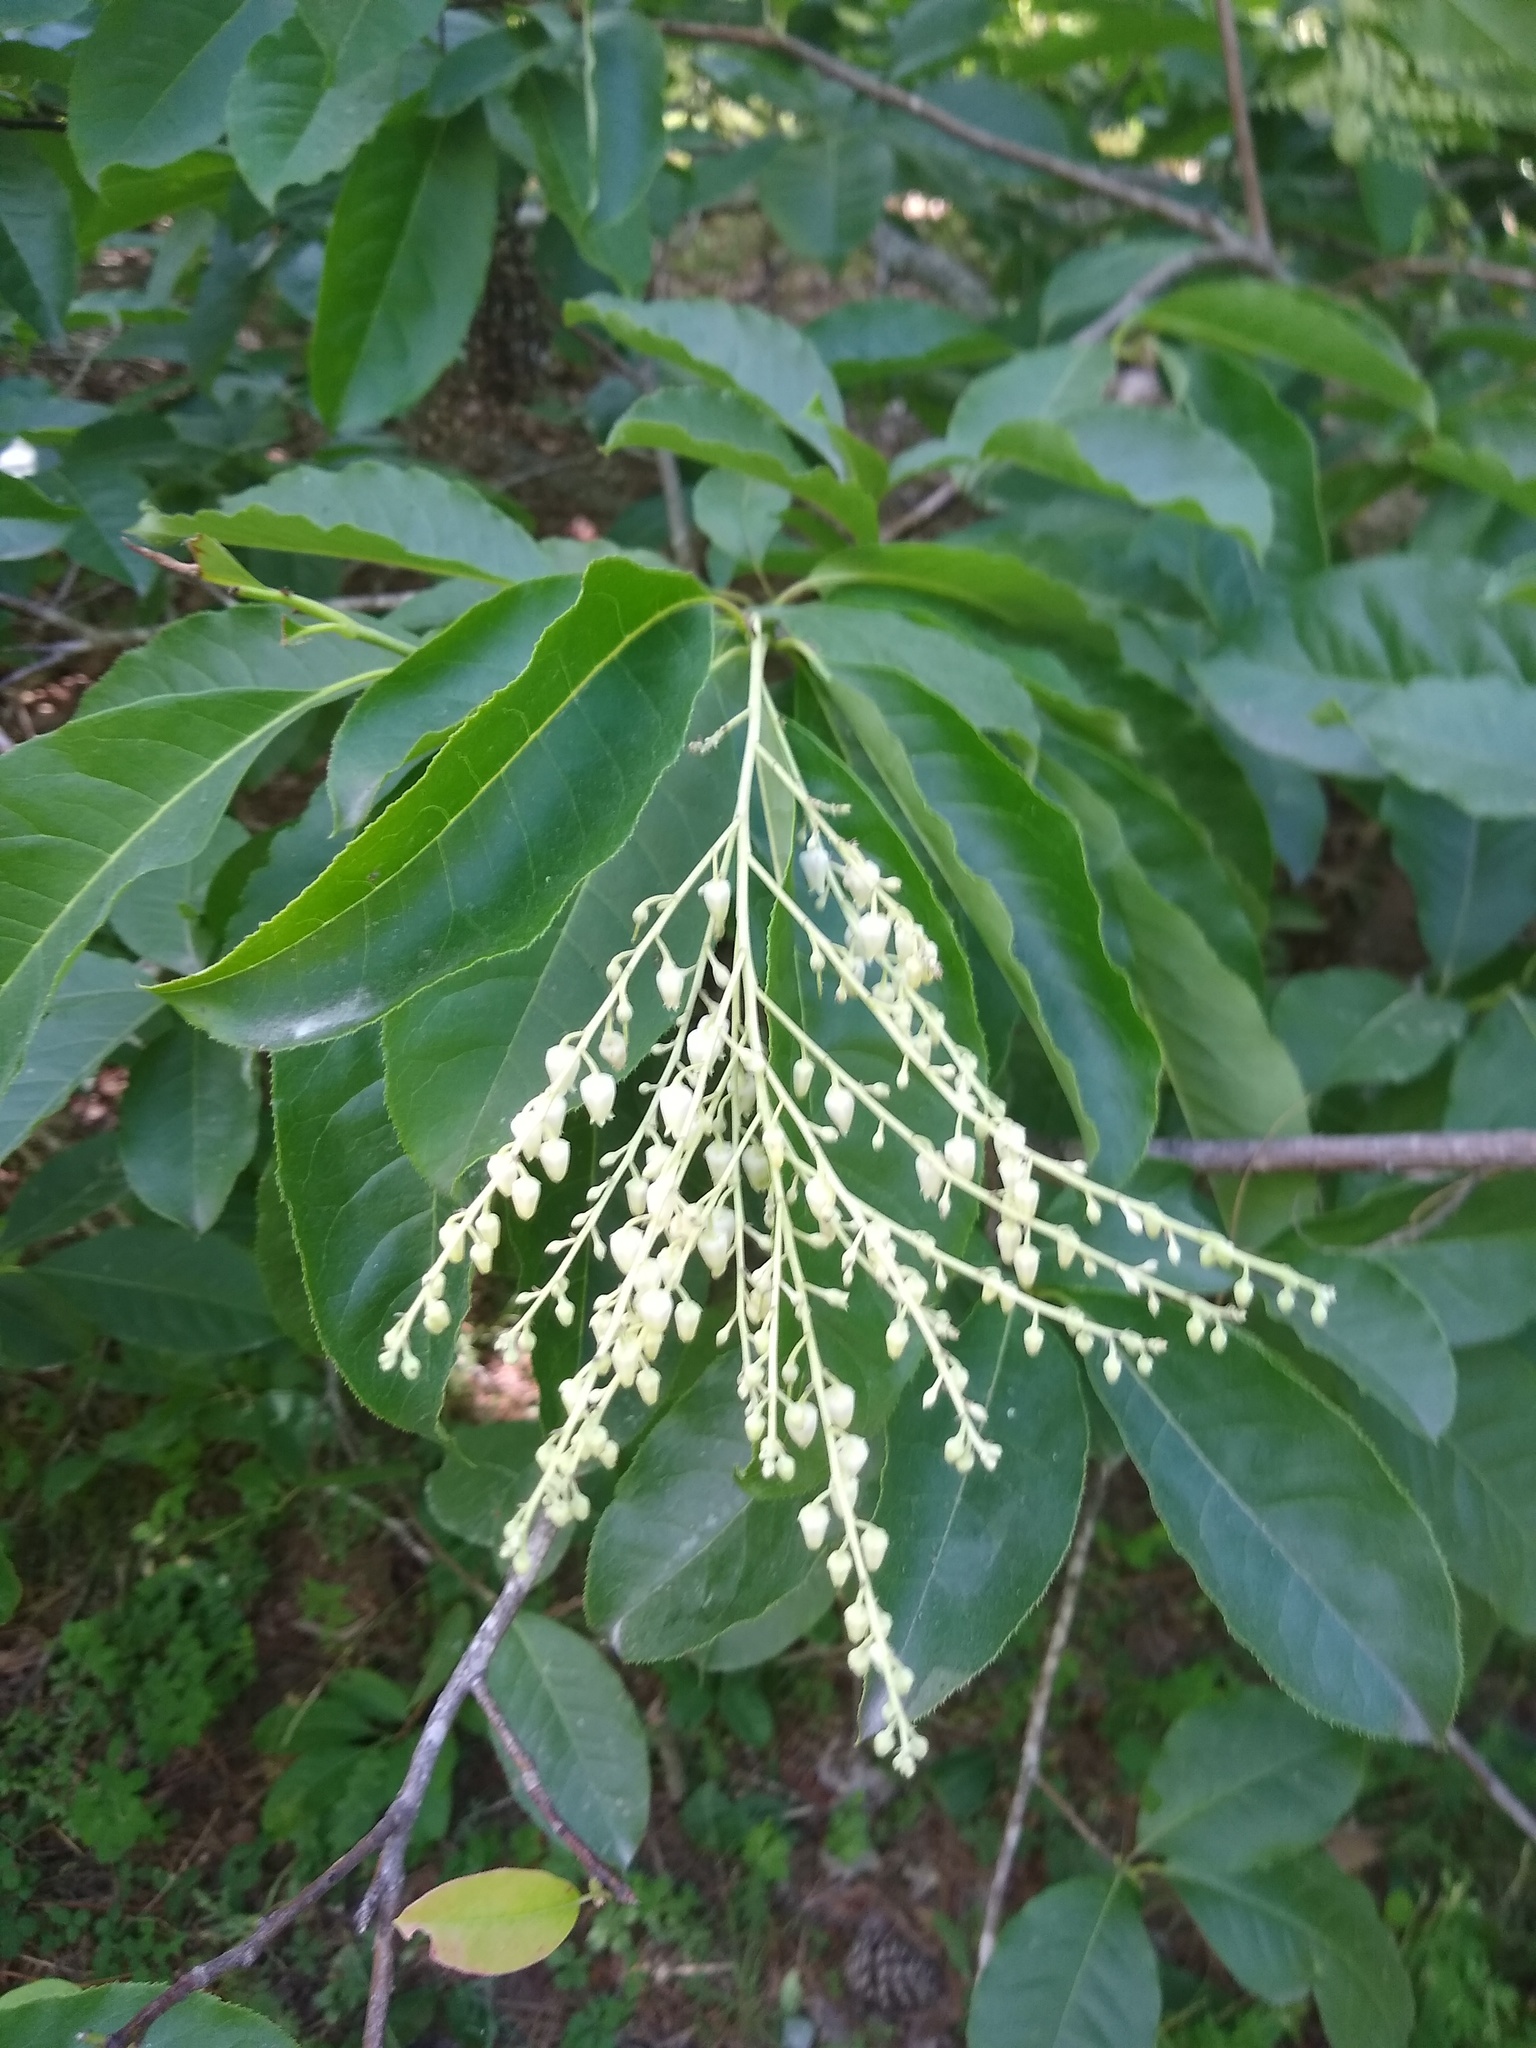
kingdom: Plantae
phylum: Tracheophyta
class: Magnoliopsida
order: Ericales
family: Ericaceae
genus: Oxydendrum
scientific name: Oxydendrum arboreum
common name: Sourwood
